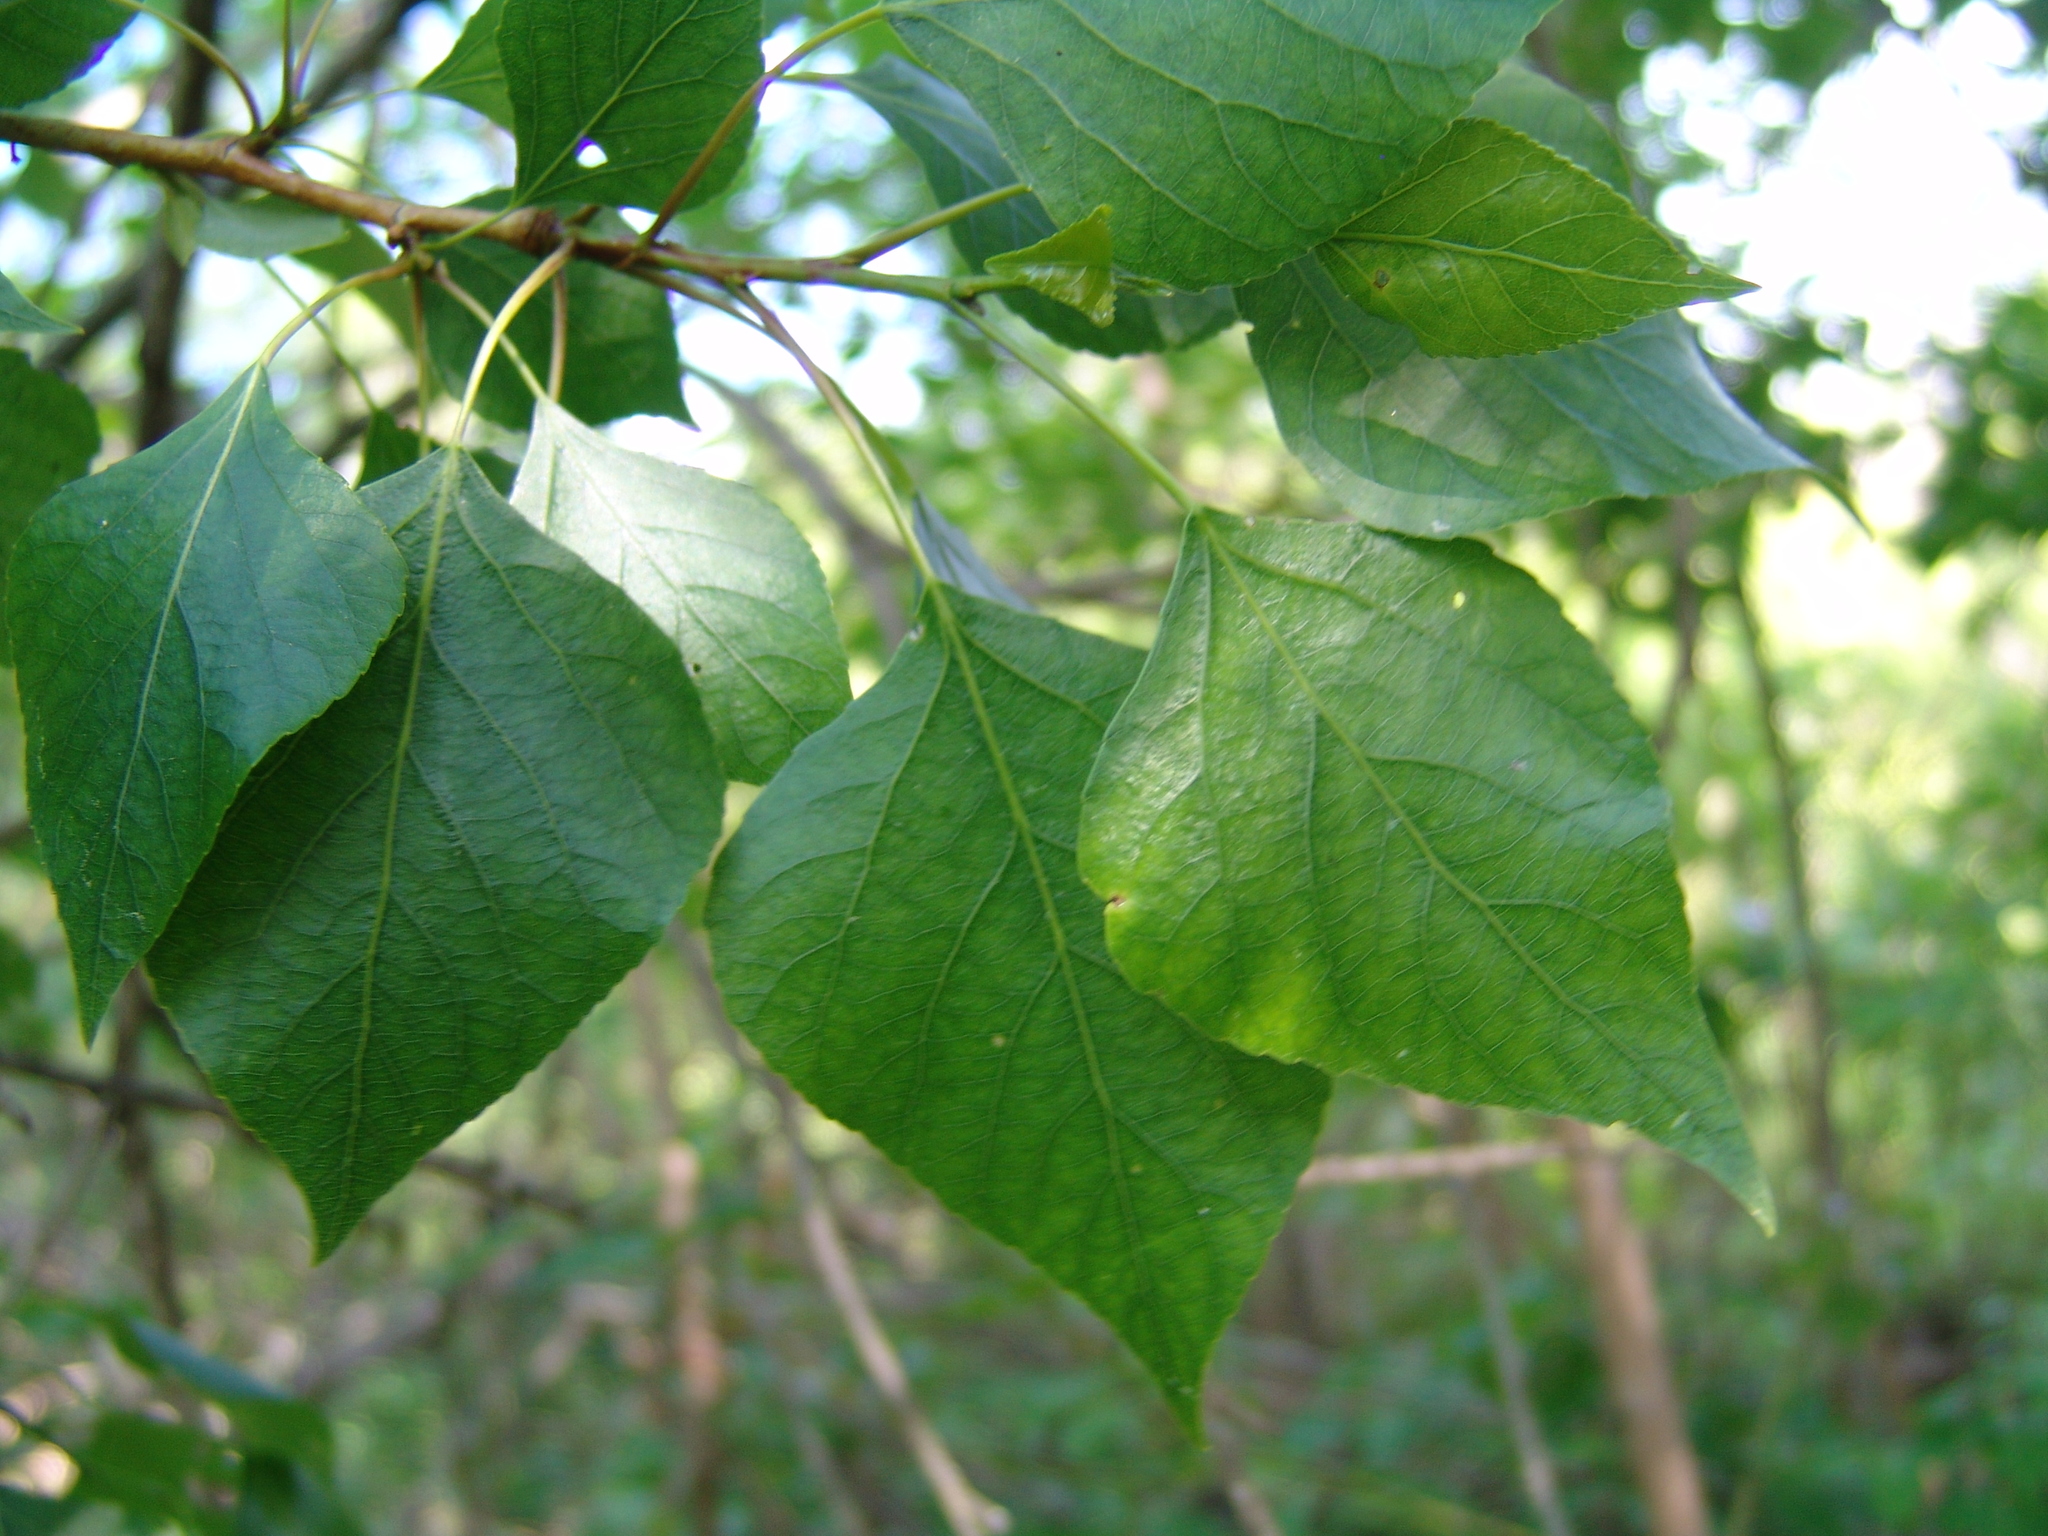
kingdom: Plantae
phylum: Tracheophyta
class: Magnoliopsida
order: Malpighiales
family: Salicaceae
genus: Populus
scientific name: Populus nigra
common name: Black poplar
